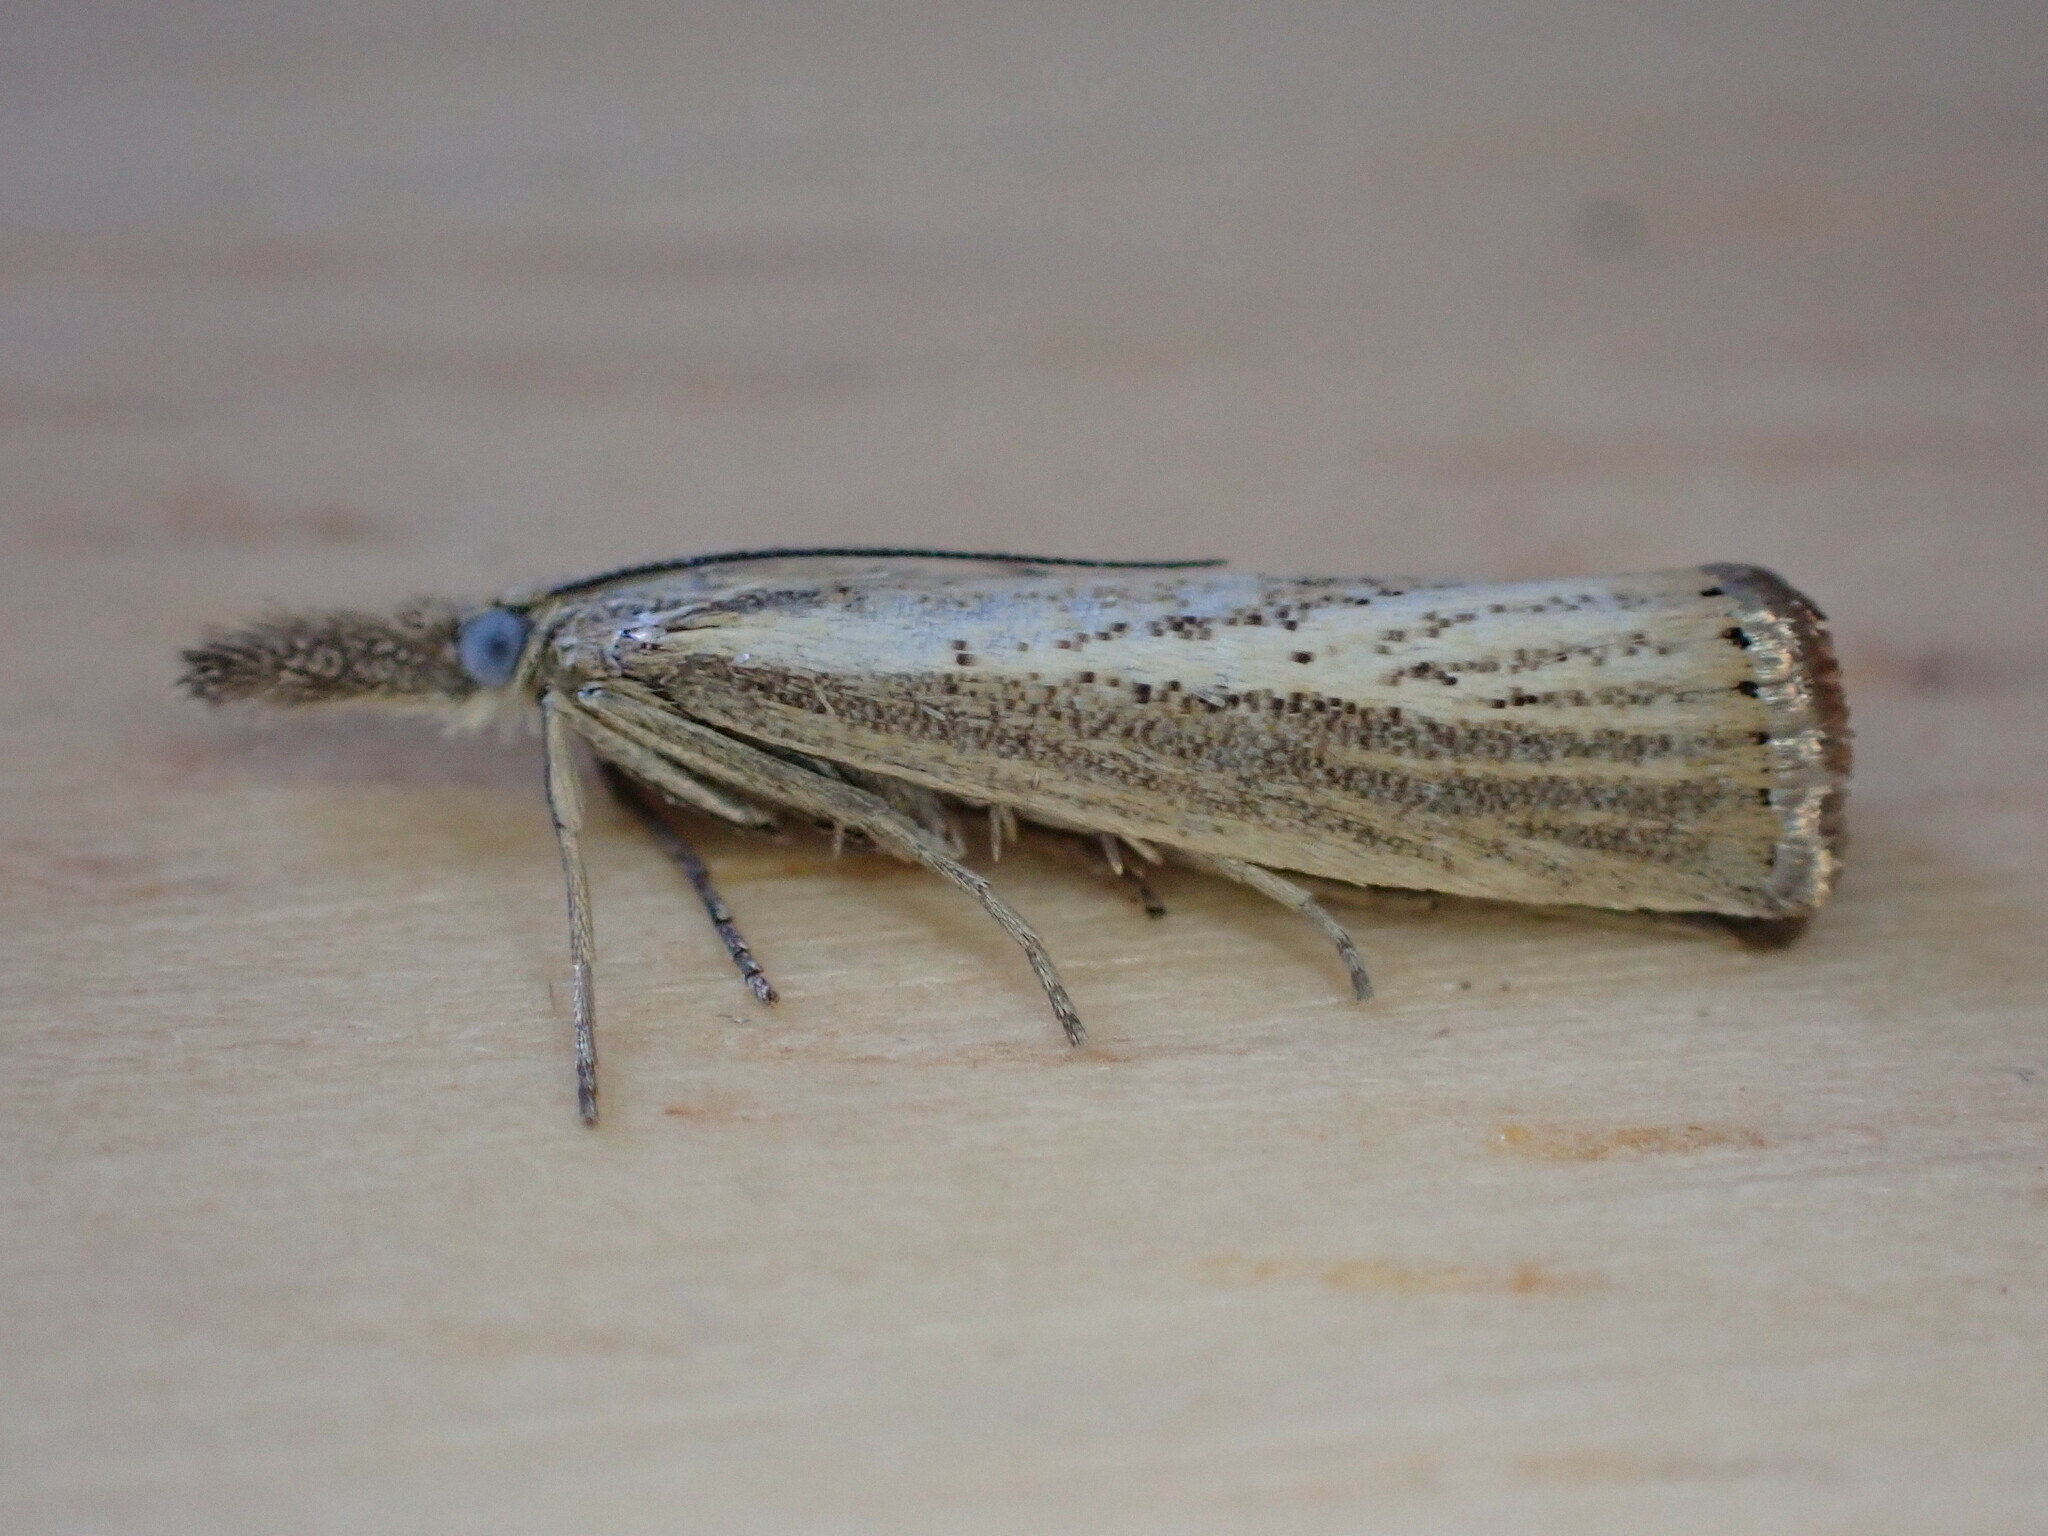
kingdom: Animalia
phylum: Arthropoda
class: Insecta
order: Lepidoptera
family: Crambidae
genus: Agriphila
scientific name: Agriphila straminella
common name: Straw grass-veneer
